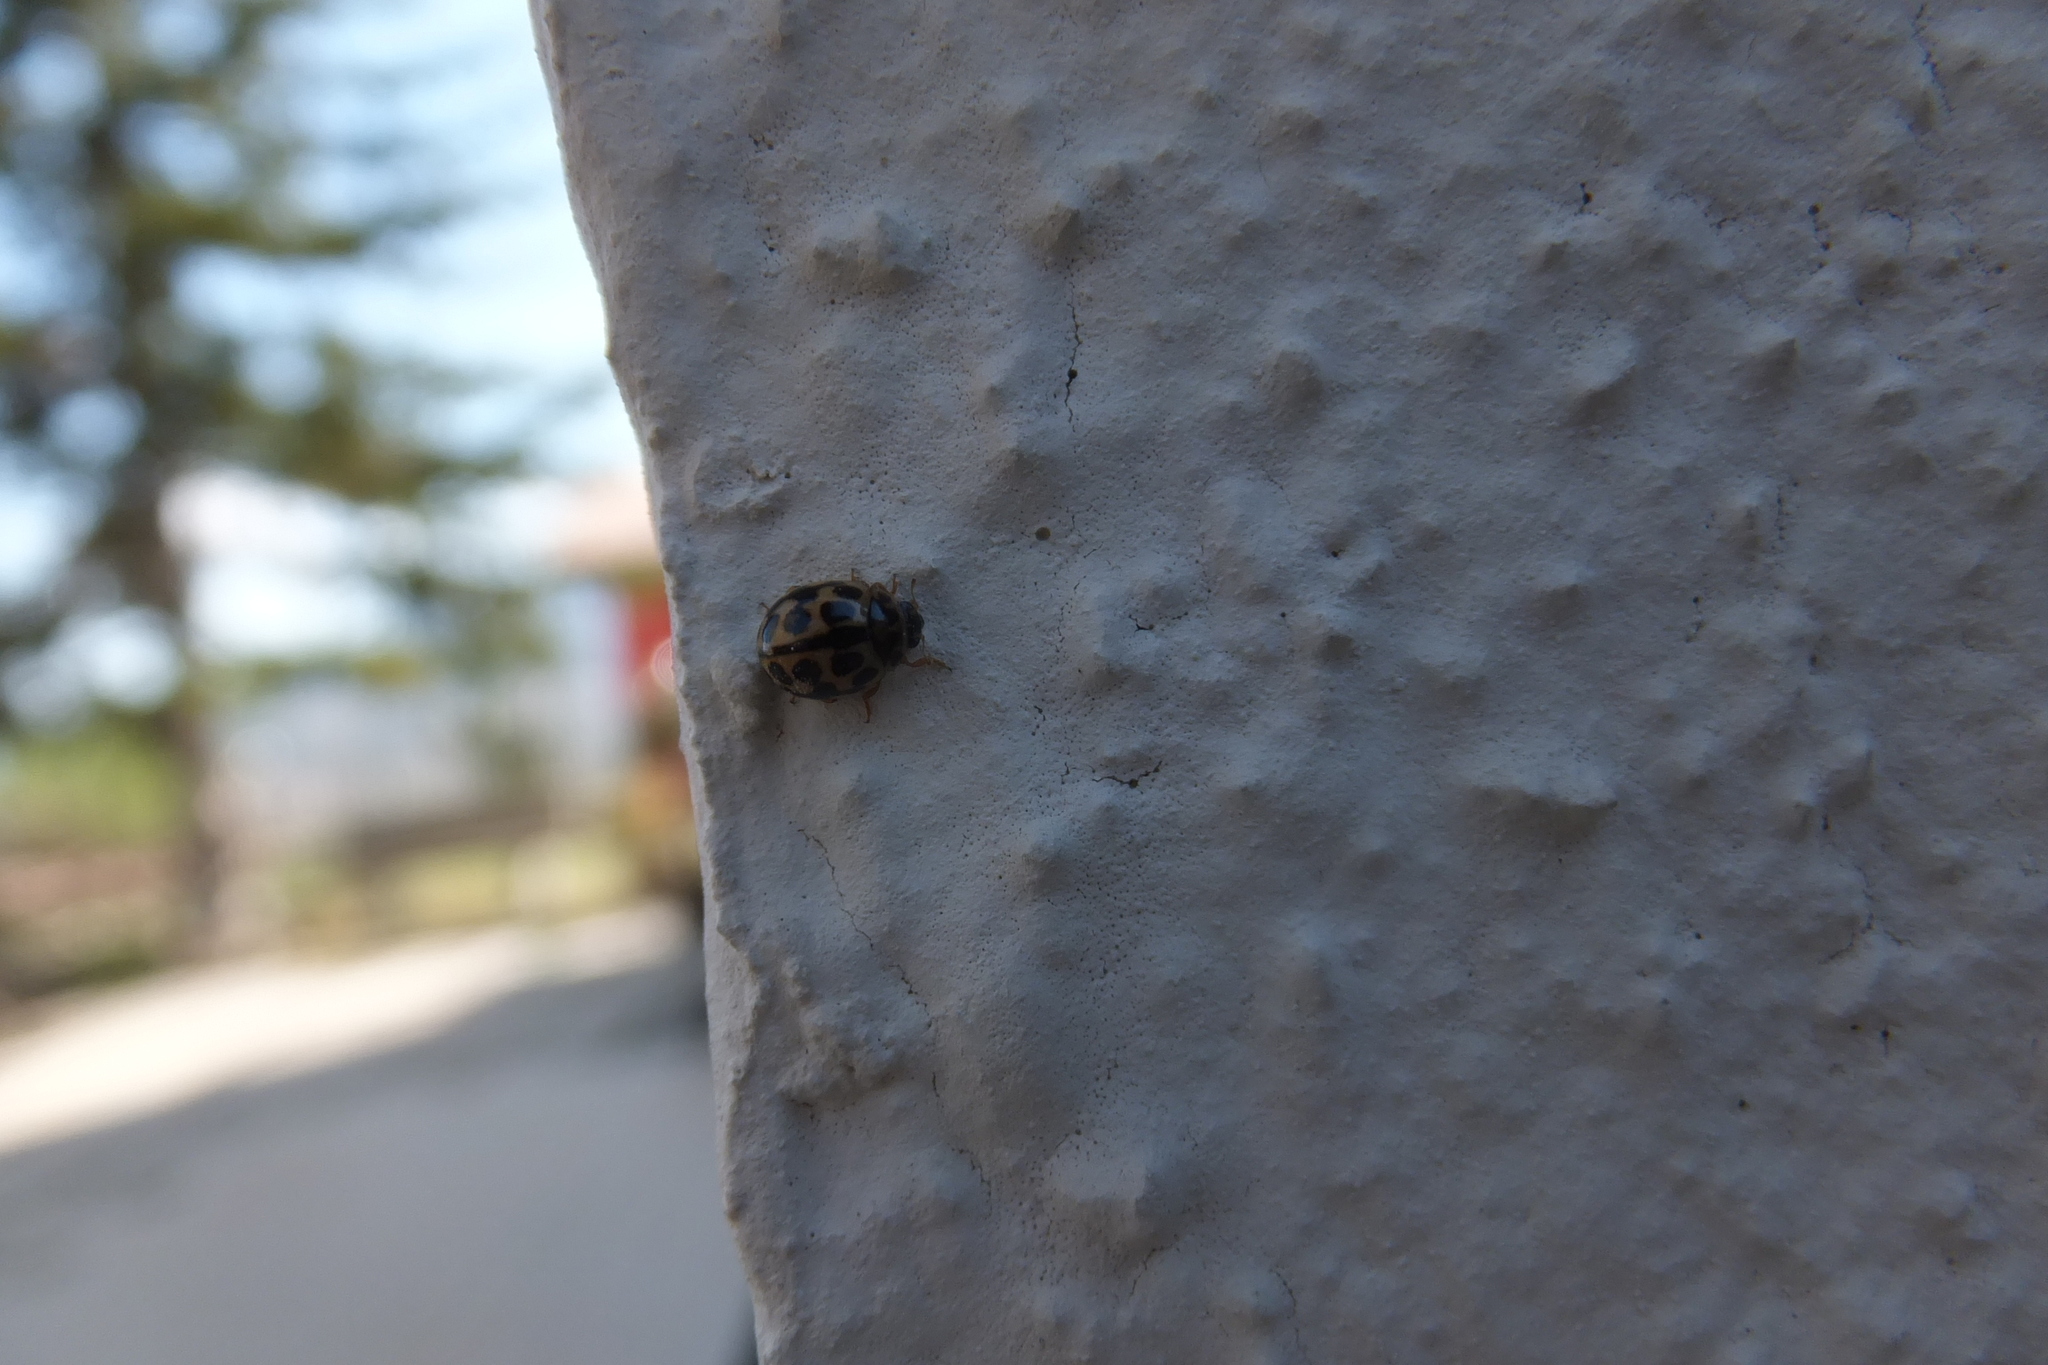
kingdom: Animalia
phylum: Arthropoda
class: Insecta
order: Coleoptera
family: Coccinellidae
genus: Tytthaspis
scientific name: Tytthaspis sedecimpunctata
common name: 16-spot ladybird
